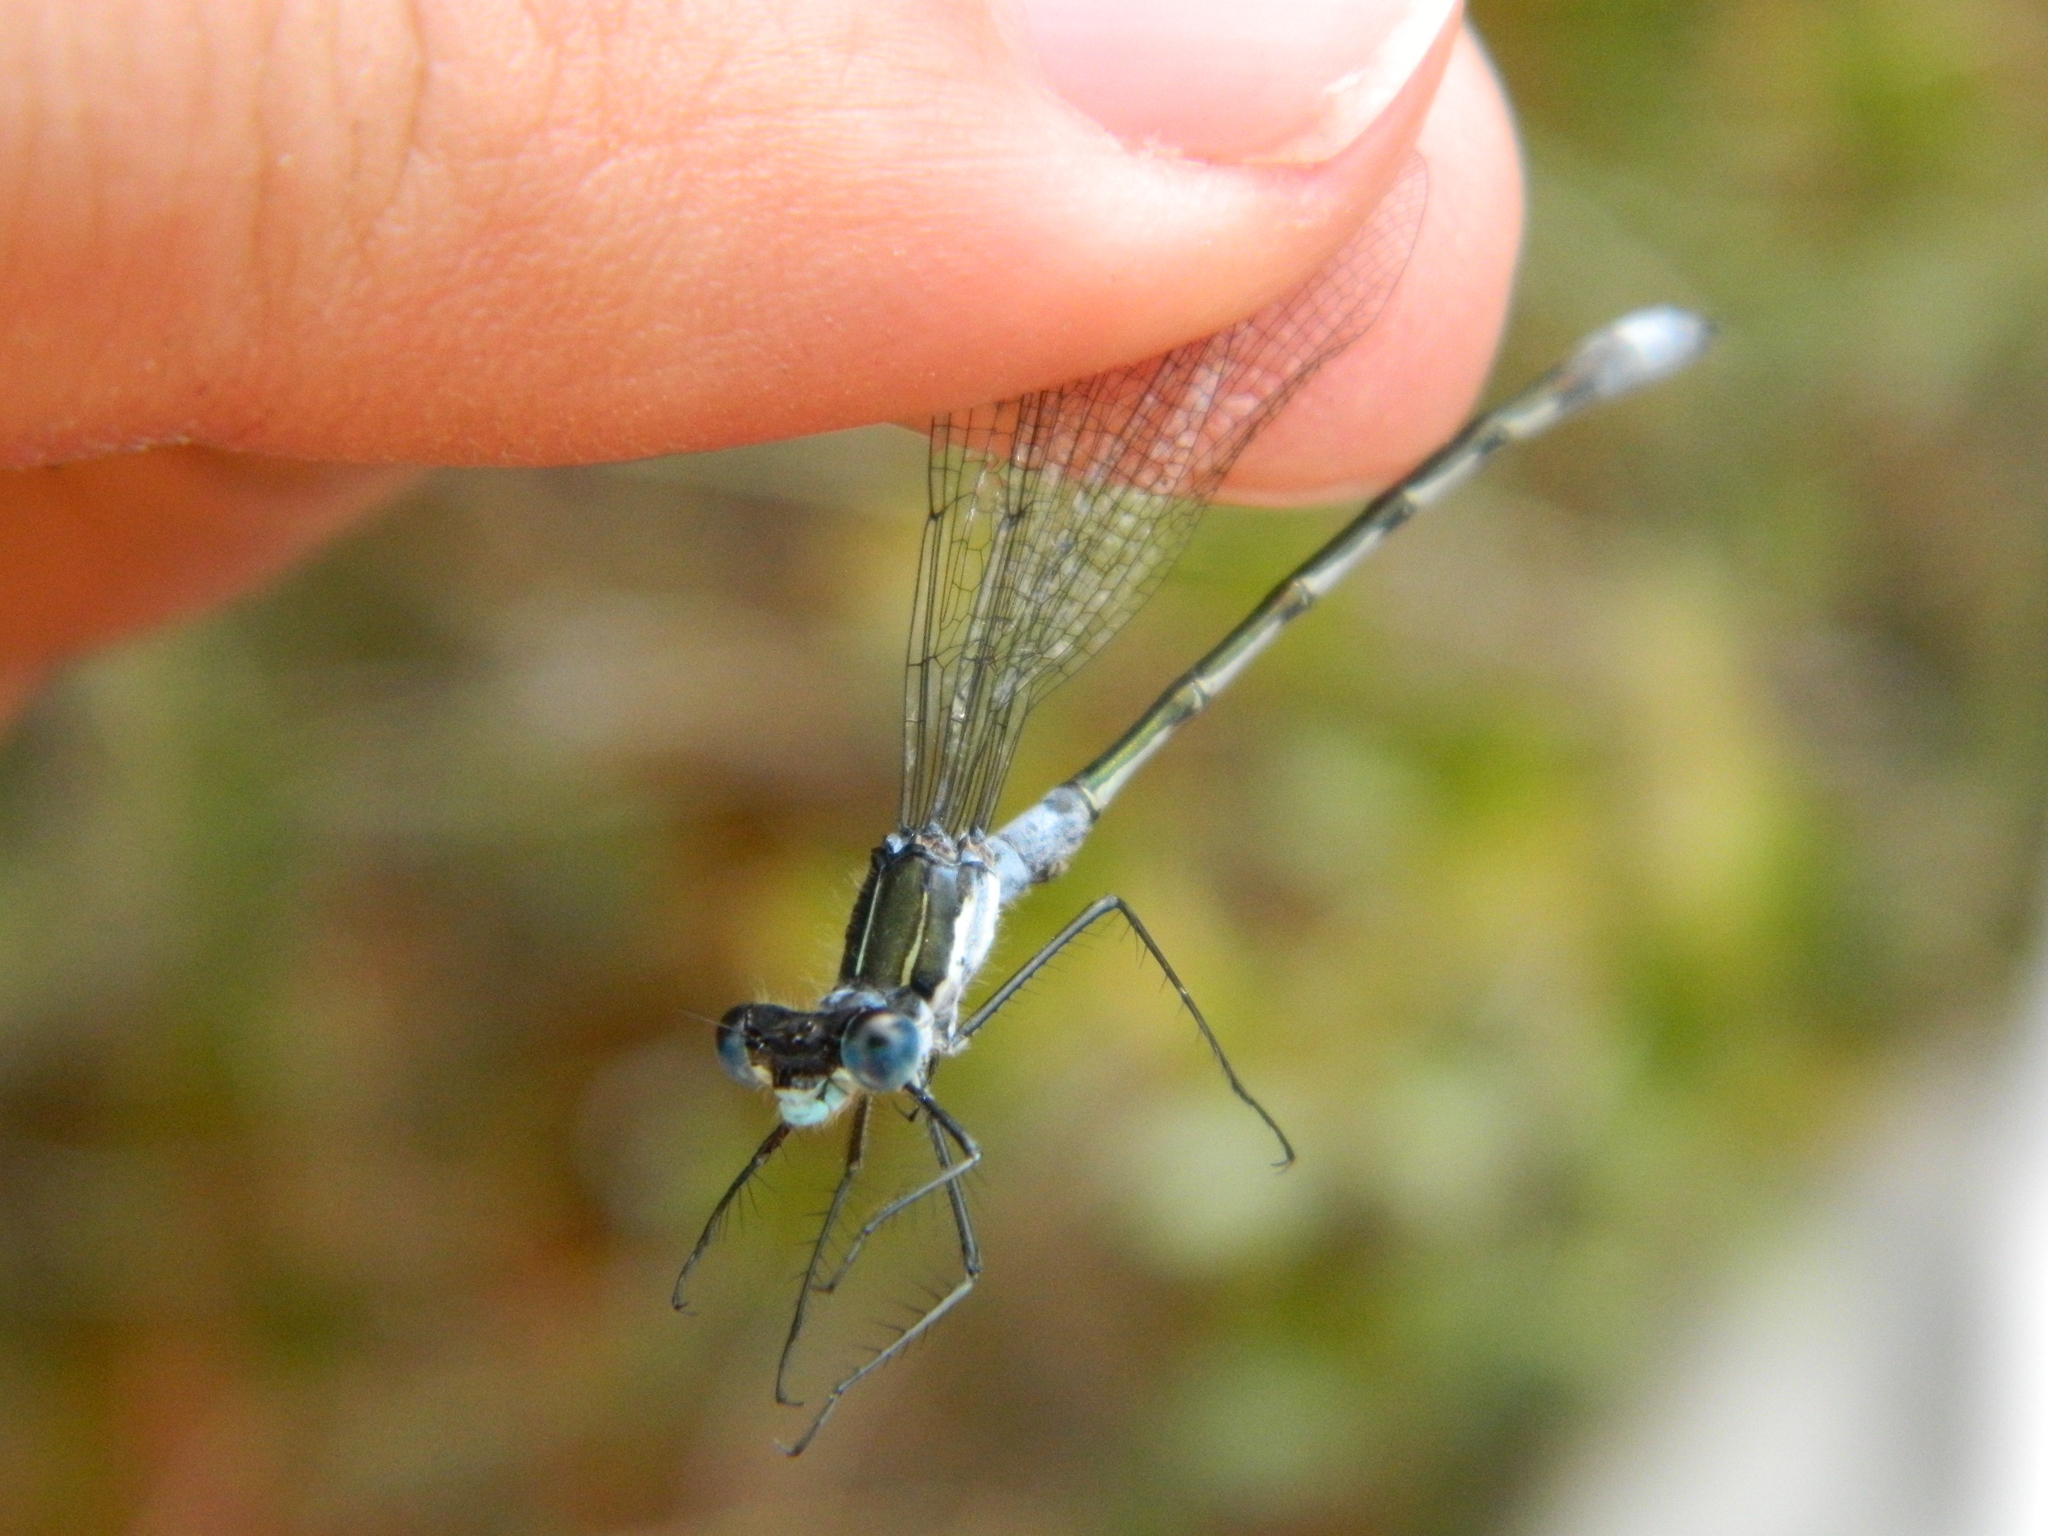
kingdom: Animalia
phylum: Arthropoda
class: Insecta
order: Odonata
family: Lestidae
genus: Lestes
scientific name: Lestes disjunctus
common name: Northern spreadwing
